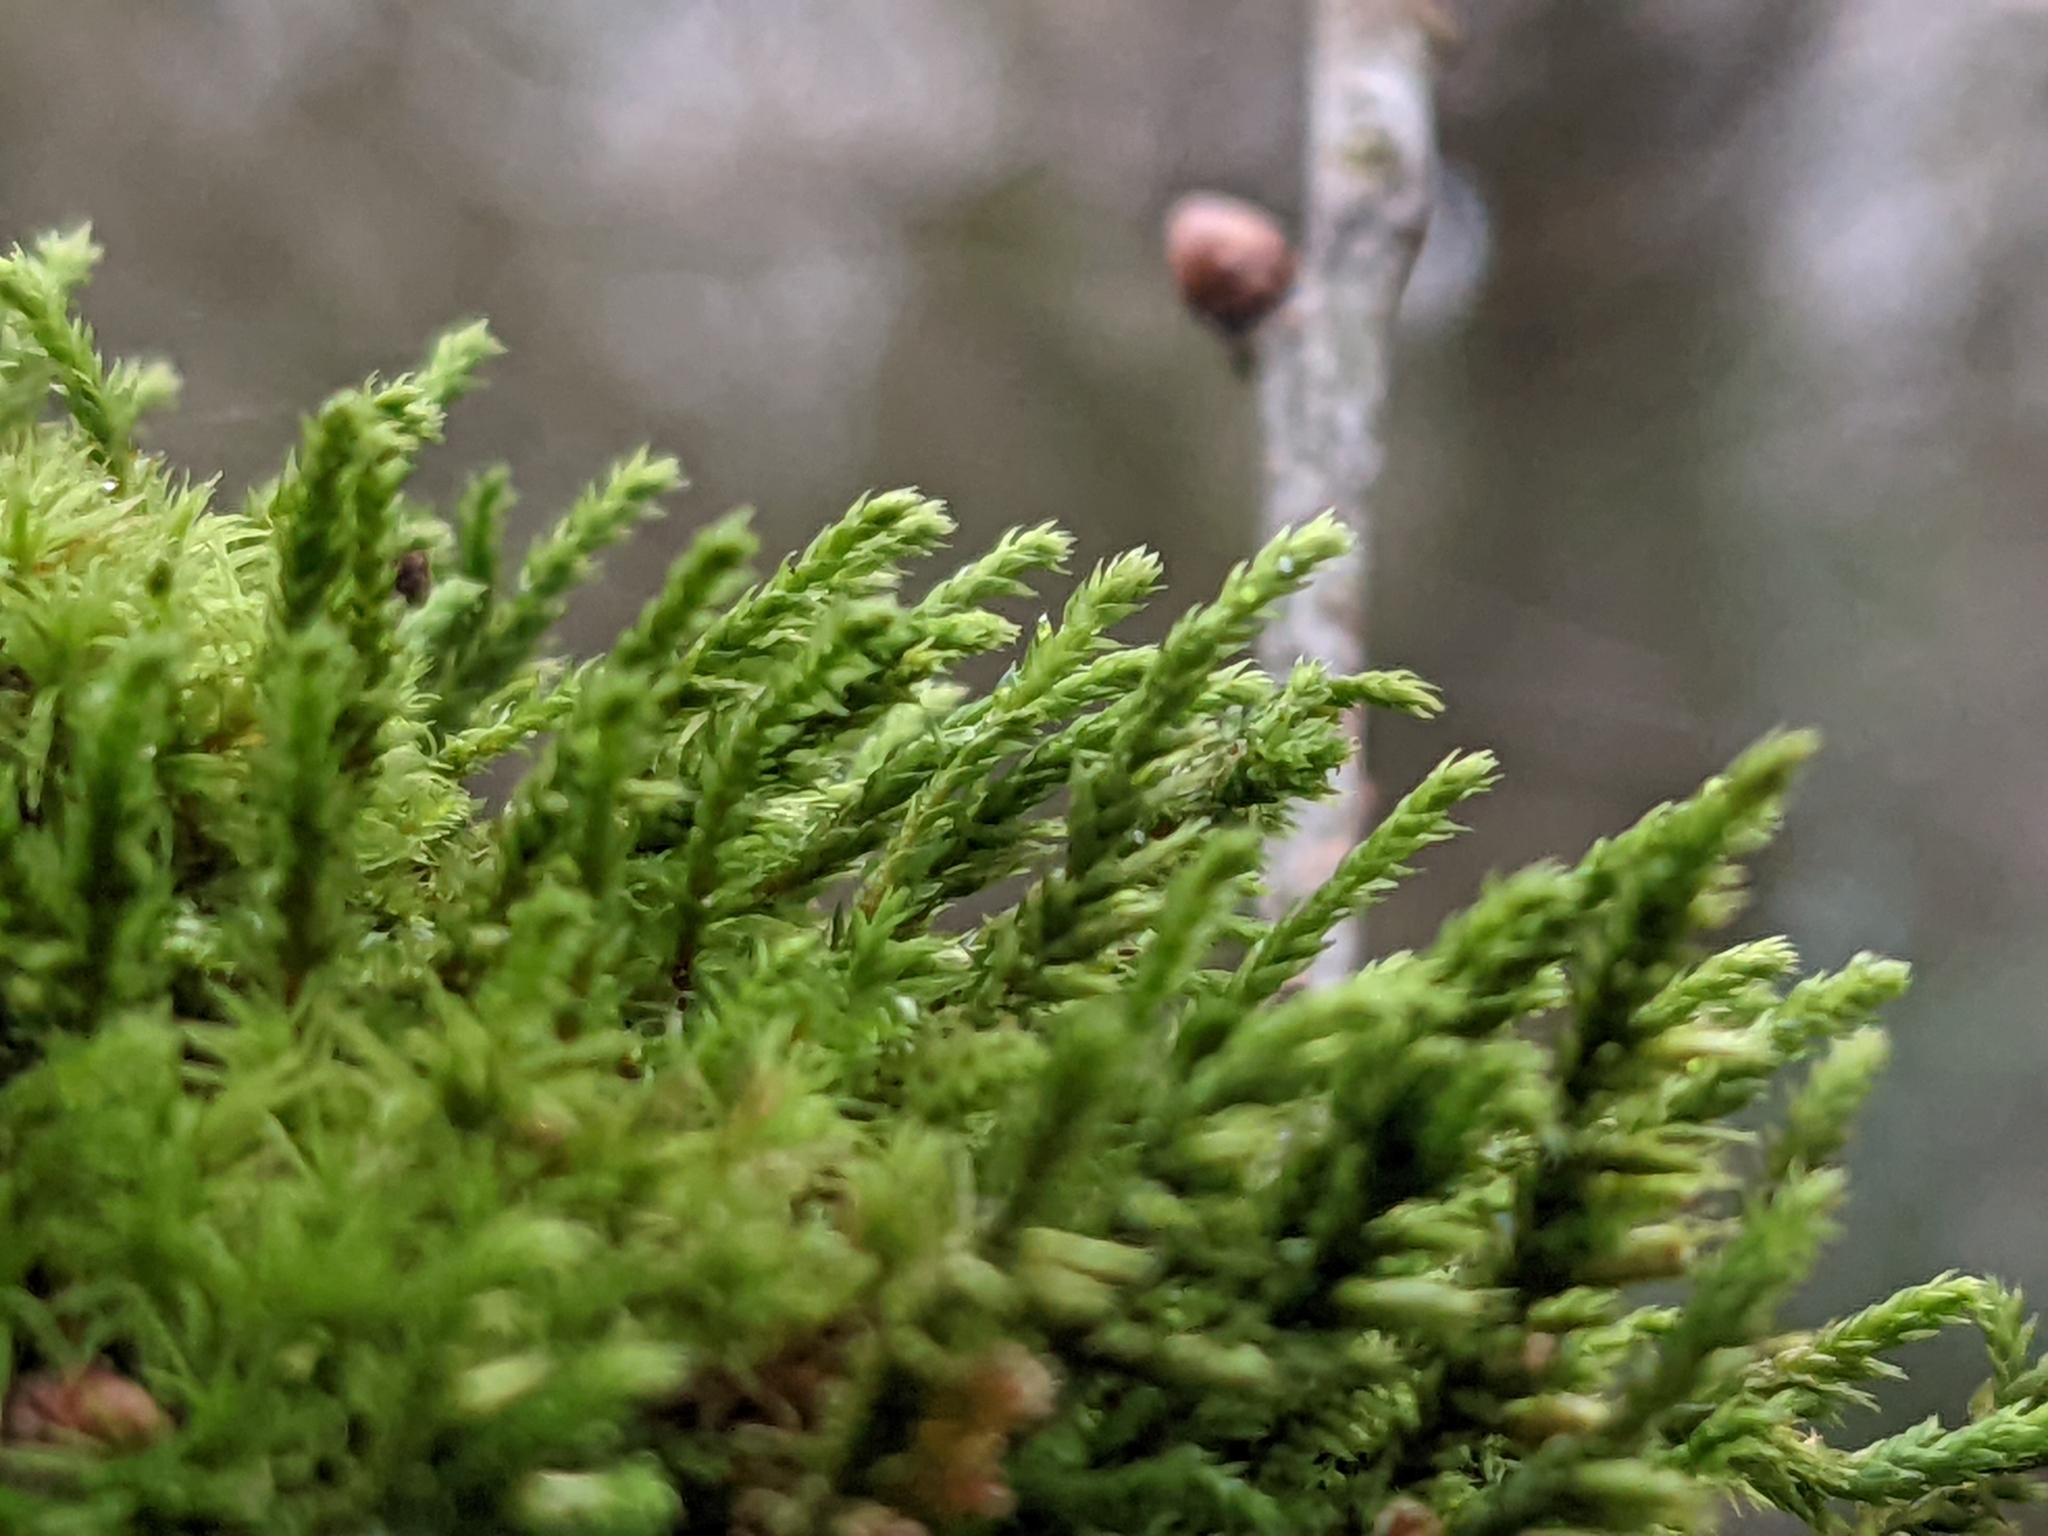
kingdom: Plantae
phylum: Bryophyta
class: Bryopsida
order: Hypnales
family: Cryphaeaceae
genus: Cryphaea
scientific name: Cryphaea heteromalla
